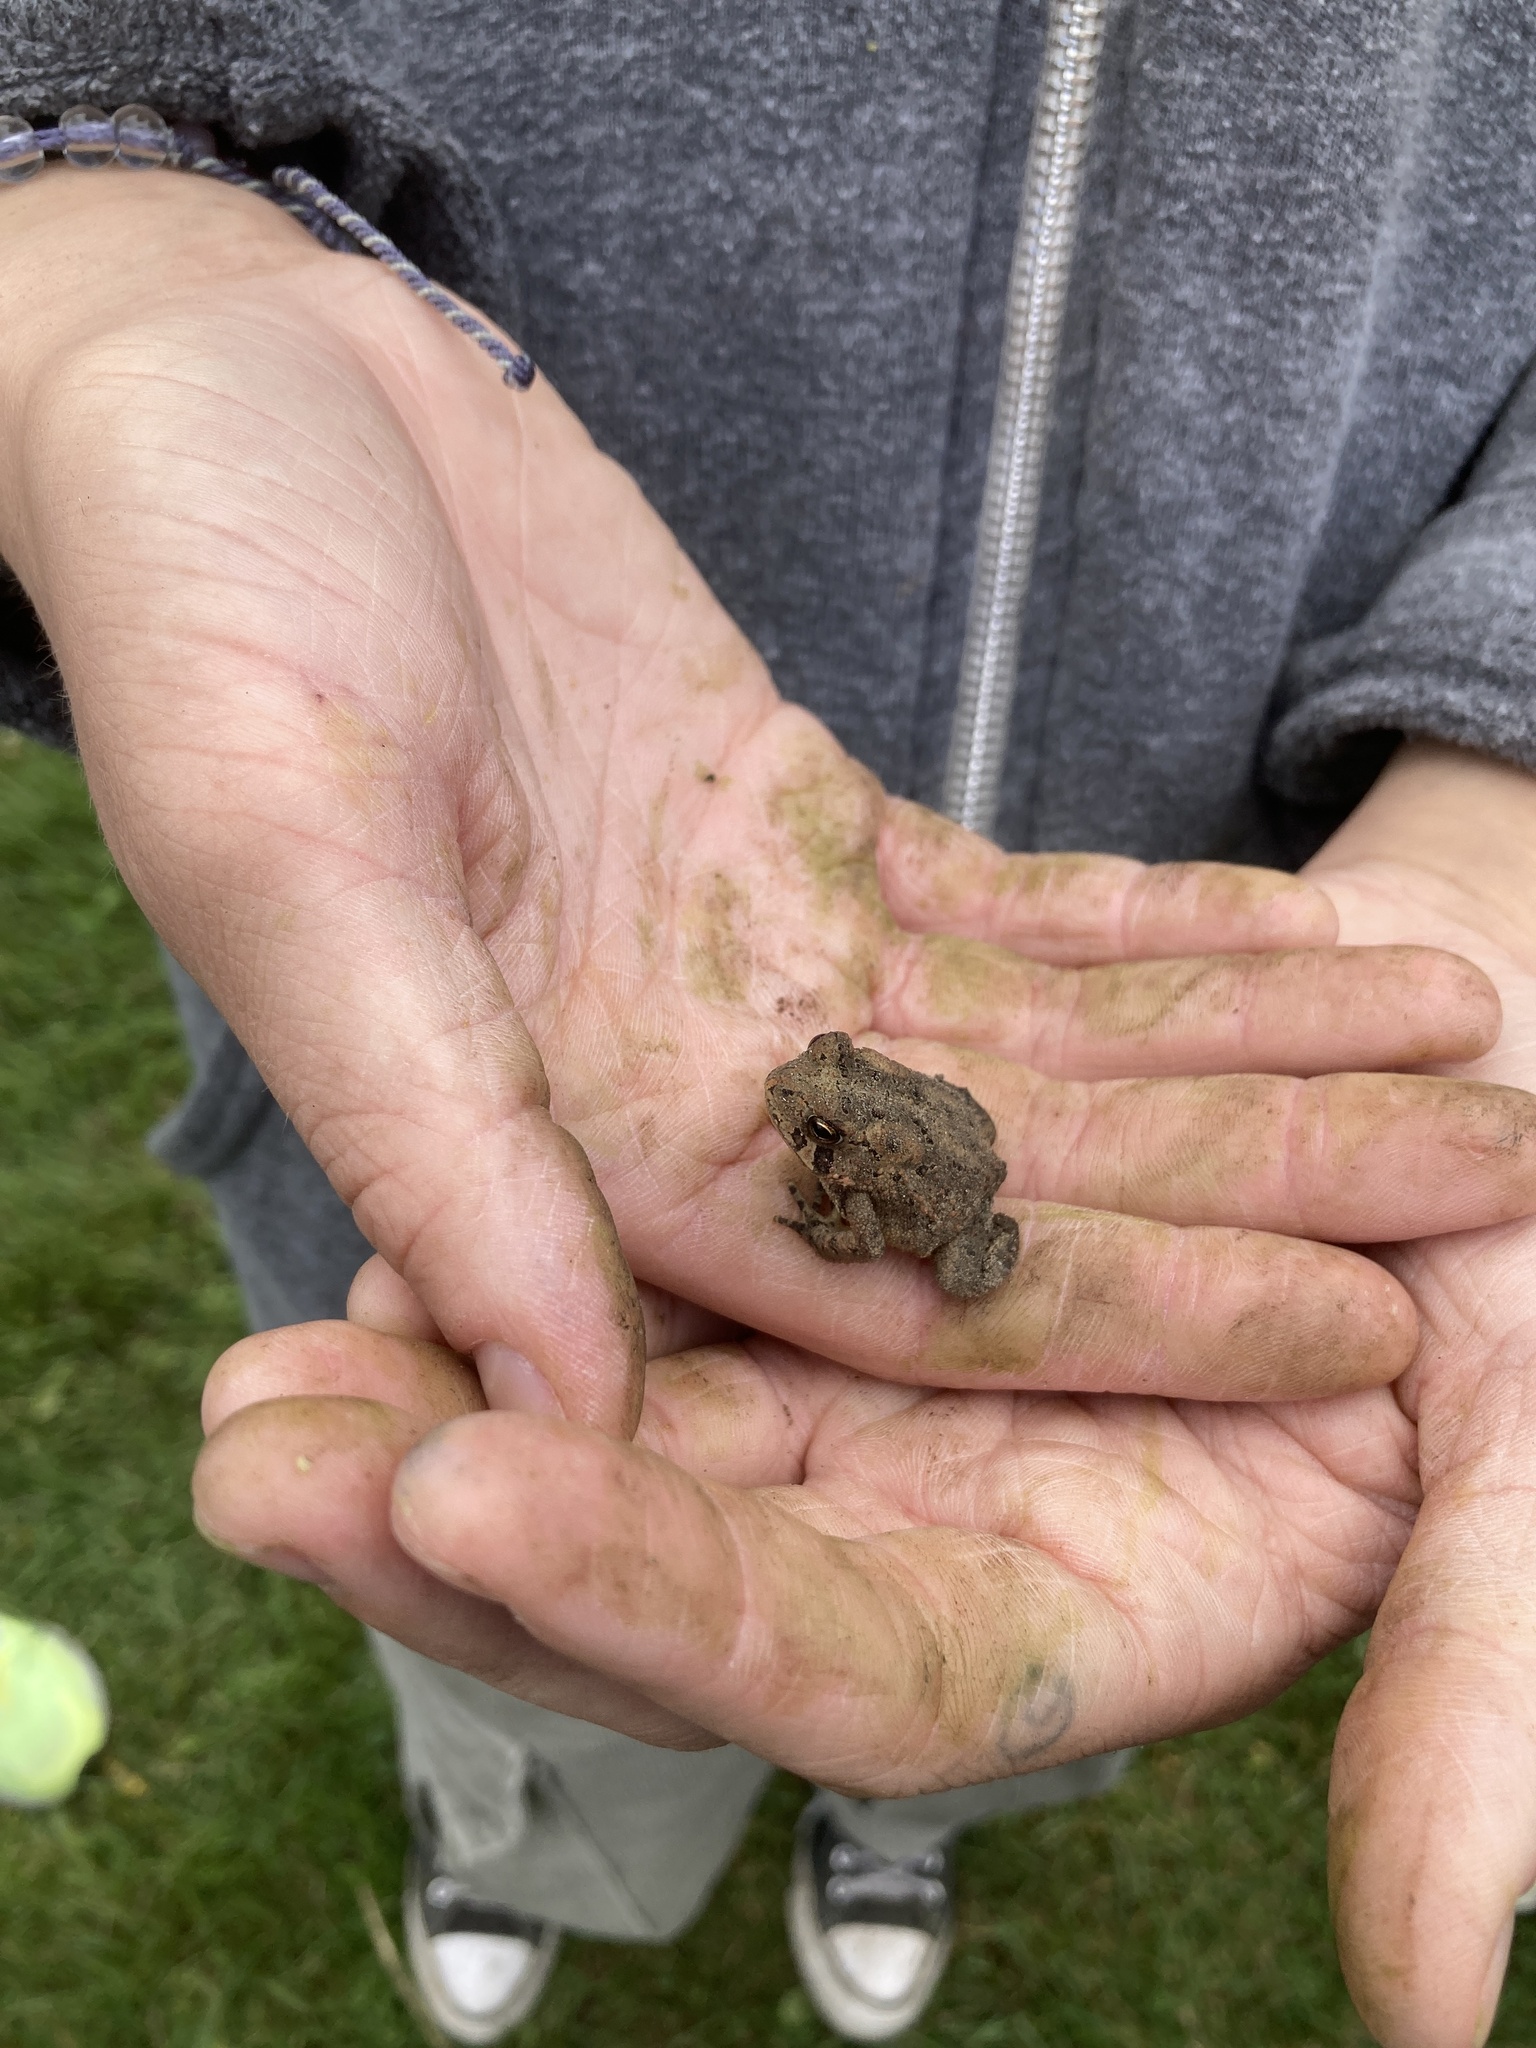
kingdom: Animalia
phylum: Chordata
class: Amphibia
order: Anura
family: Bufonidae
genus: Anaxyrus
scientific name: Anaxyrus americanus
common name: American toad
